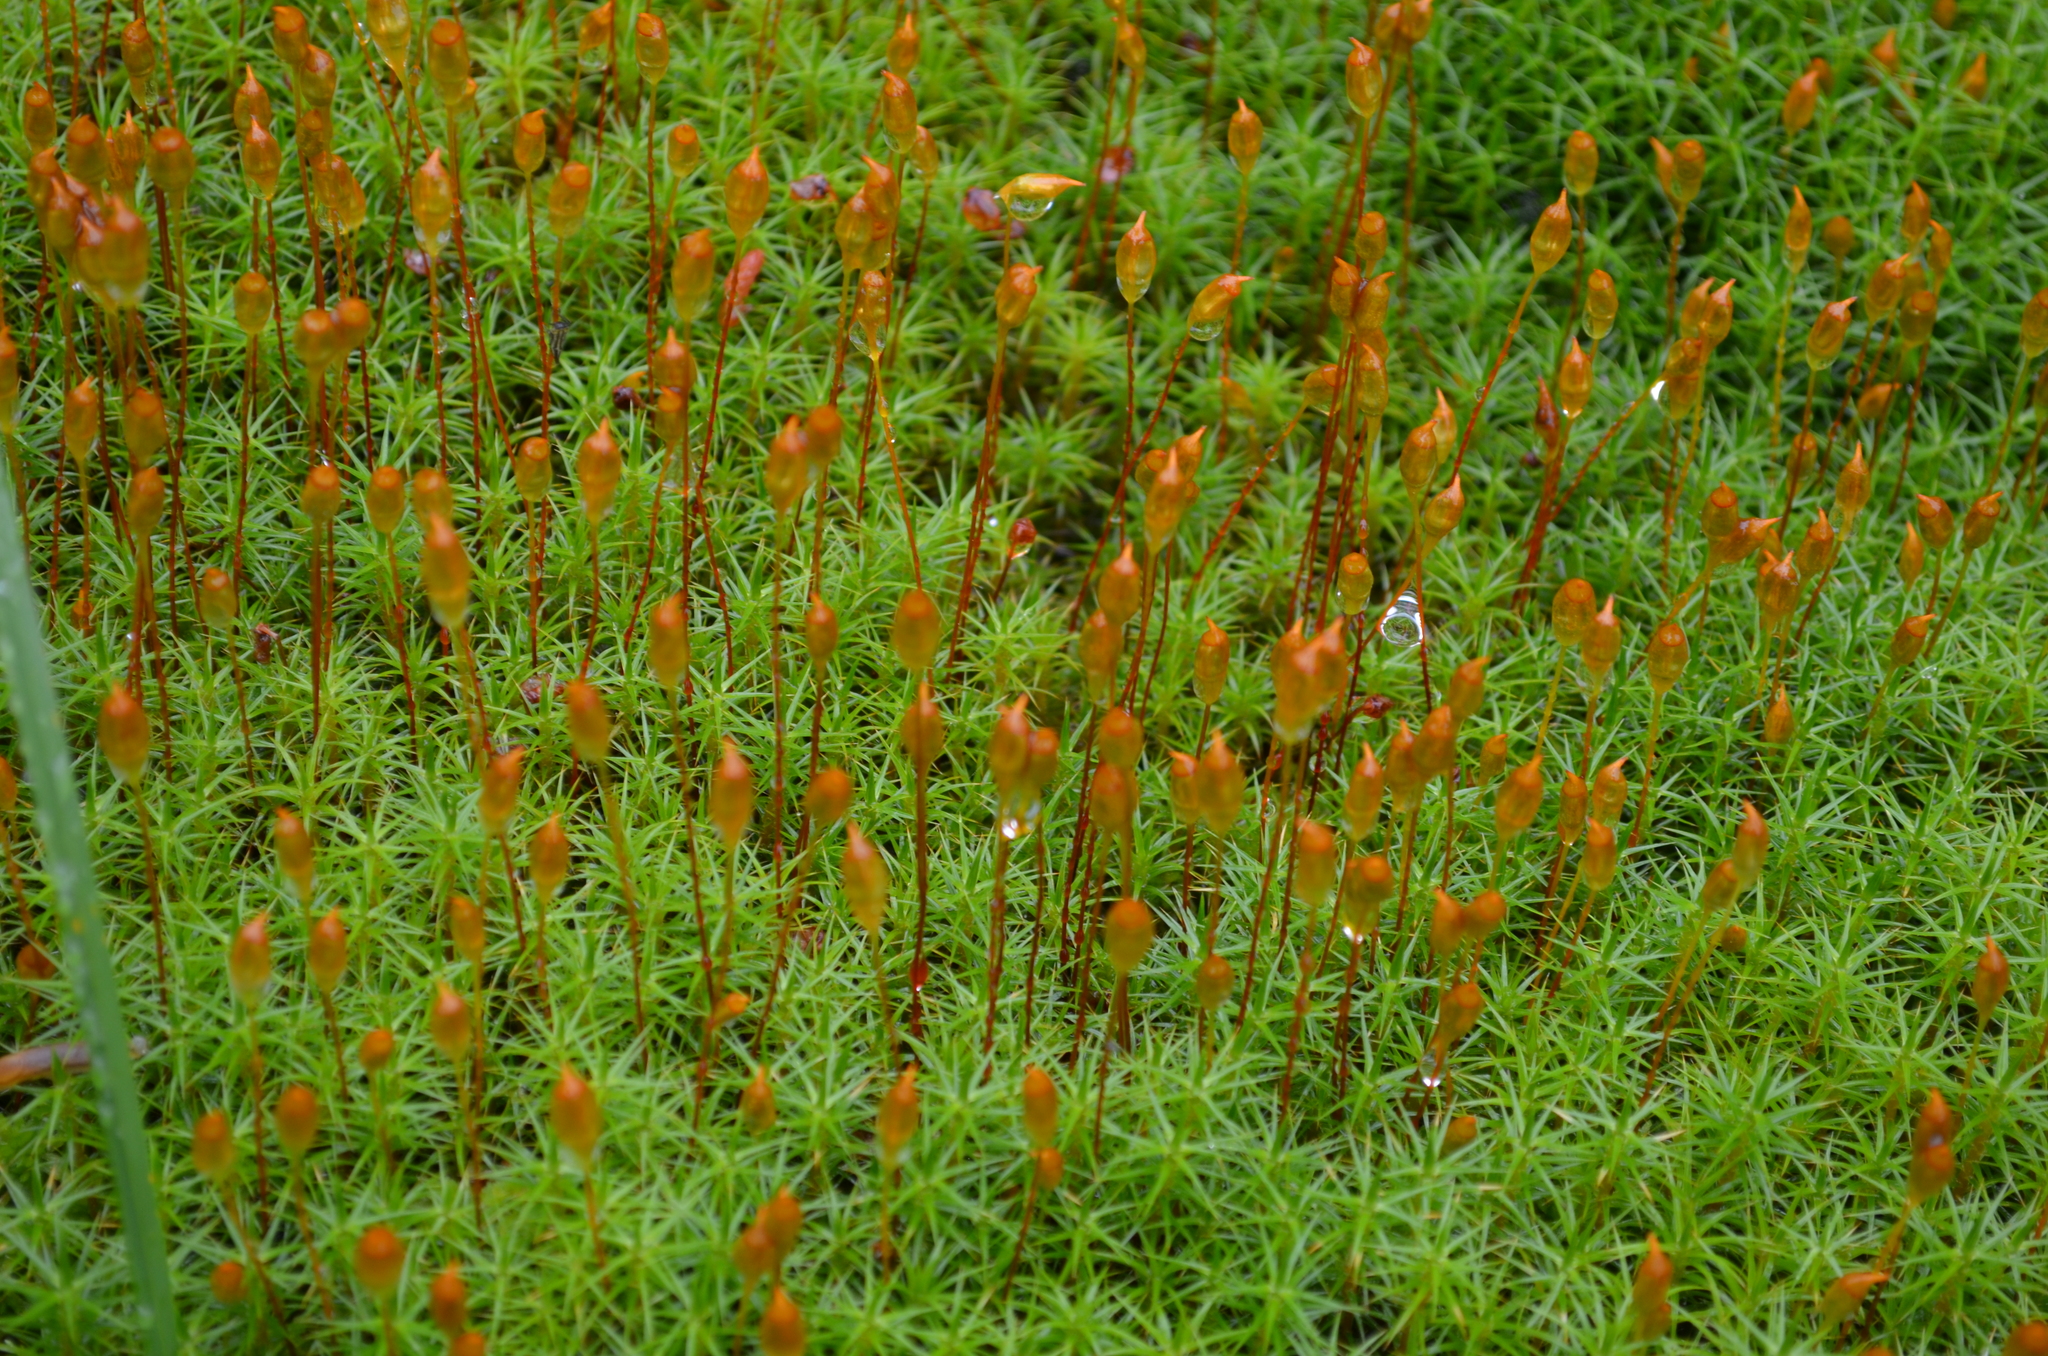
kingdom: Plantae
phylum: Bryophyta
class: Polytrichopsida
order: Polytrichales
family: Polytrichaceae
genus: Polytrichum
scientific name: Polytrichum commune
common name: Common haircap
